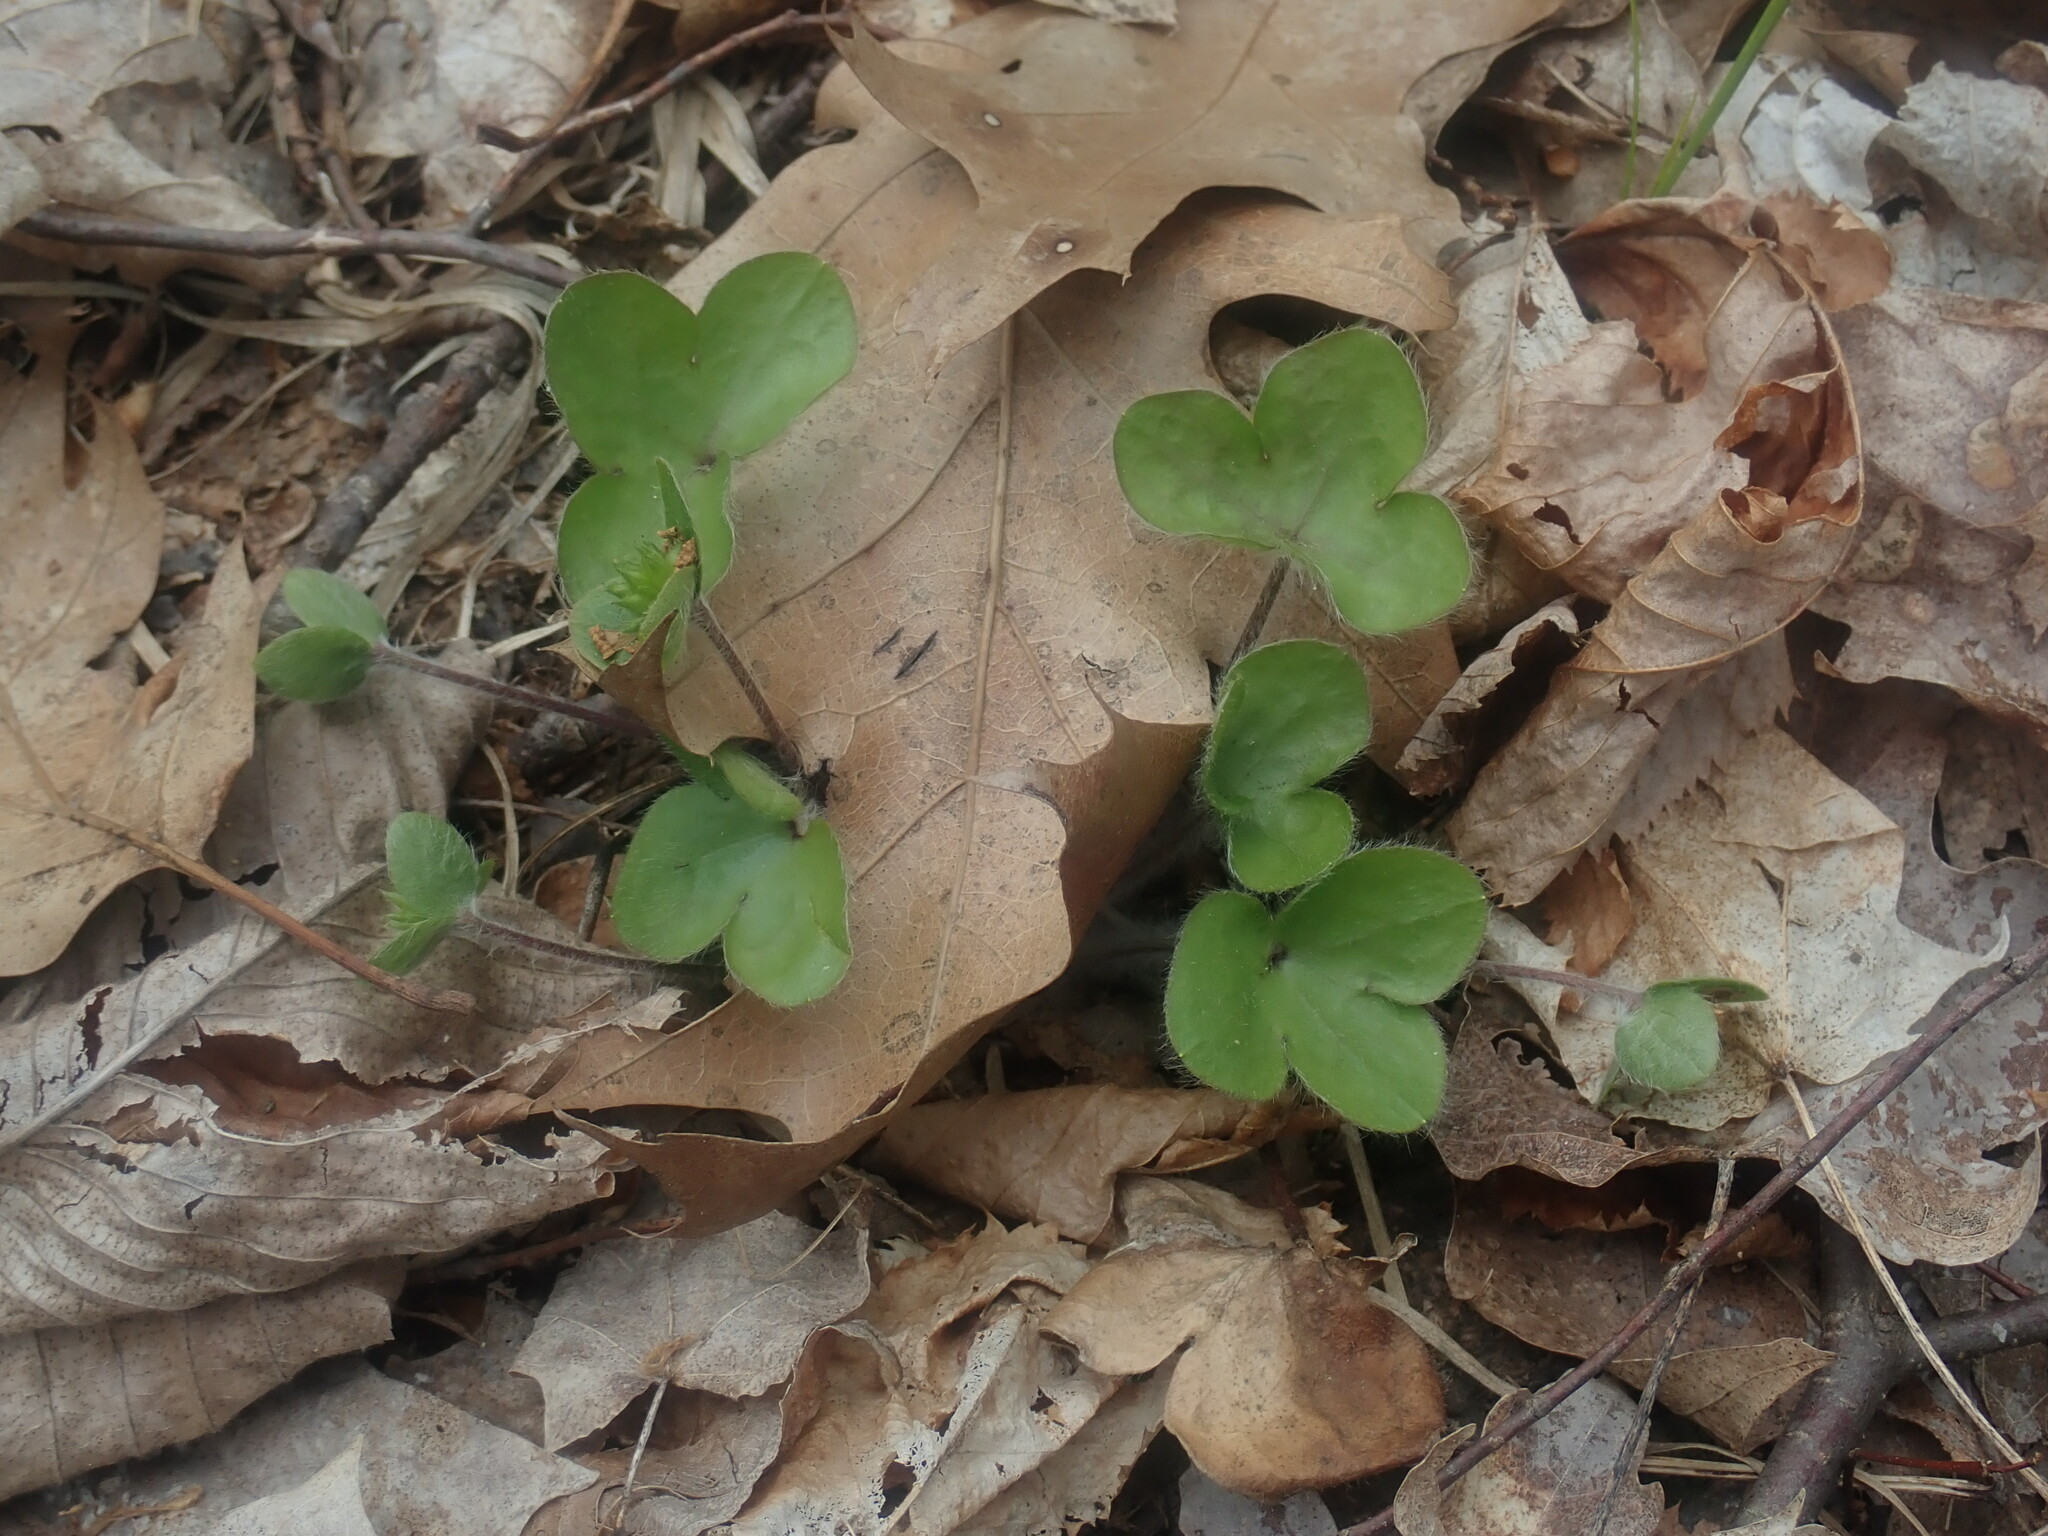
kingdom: Plantae
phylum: Tracheophyta
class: Magnoliopsida
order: Ranunculales
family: Ranunculaceae
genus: Hepatica
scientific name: Hepatica americana
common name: American hepatica
